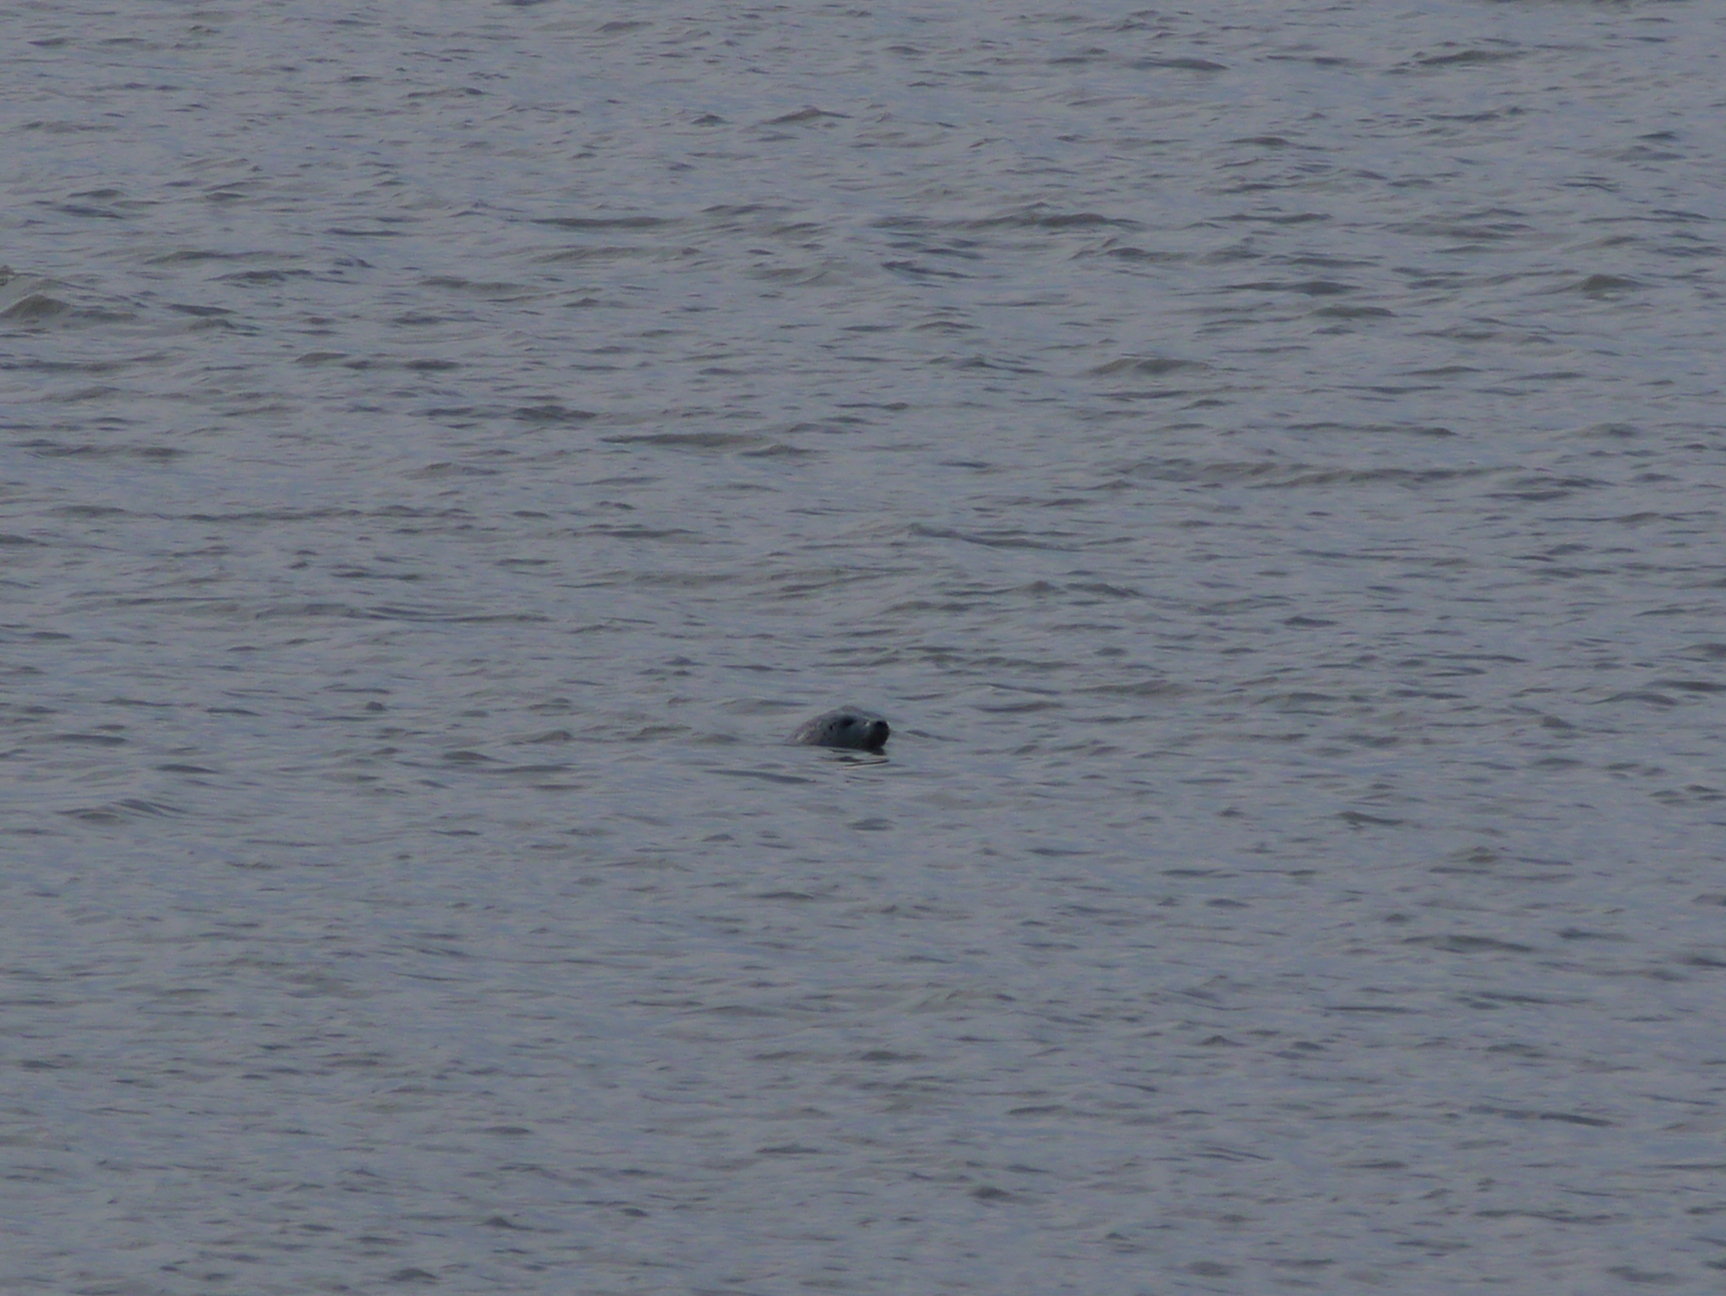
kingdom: Animalia
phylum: Chordata
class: Mammalia
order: Carnivora
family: Phocidae
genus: Phoca
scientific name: Phoca vitulina
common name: Harbor seal
